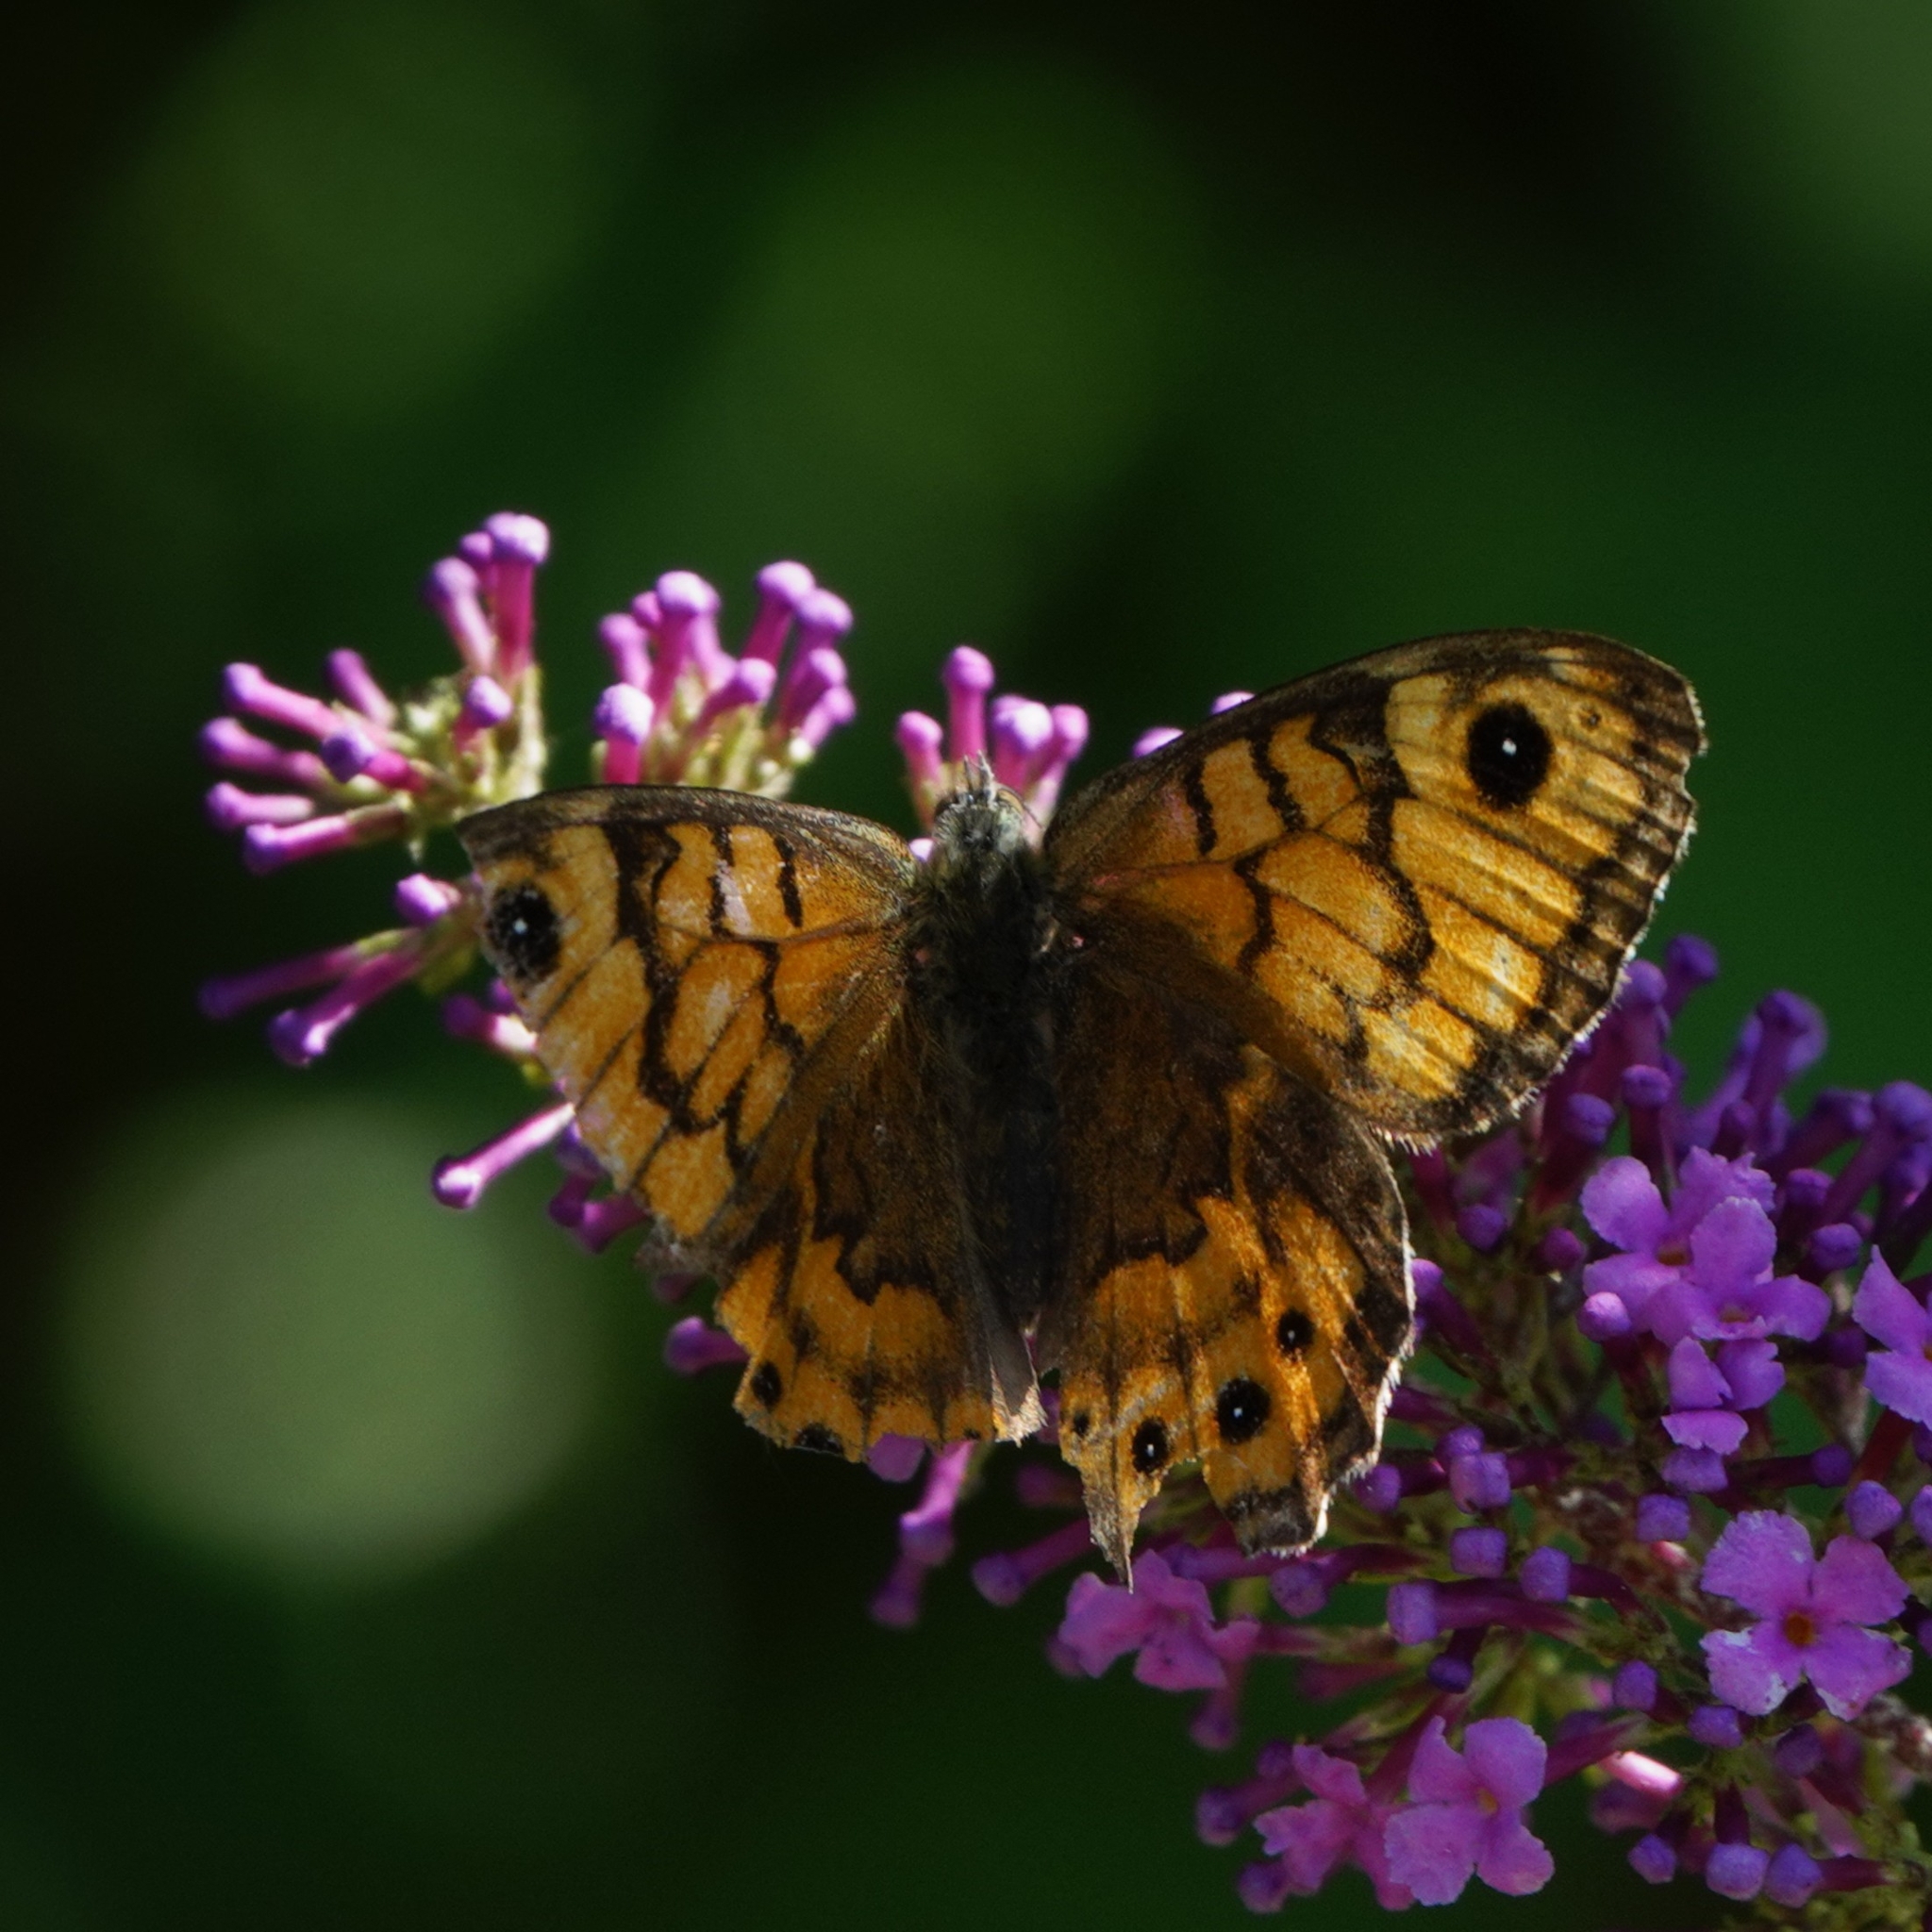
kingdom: Animalia
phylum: Arthropoda
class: Insecta
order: Lepidoptera
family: Nymphalidae
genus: Pararge
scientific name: Pararge Lasiommata megera
